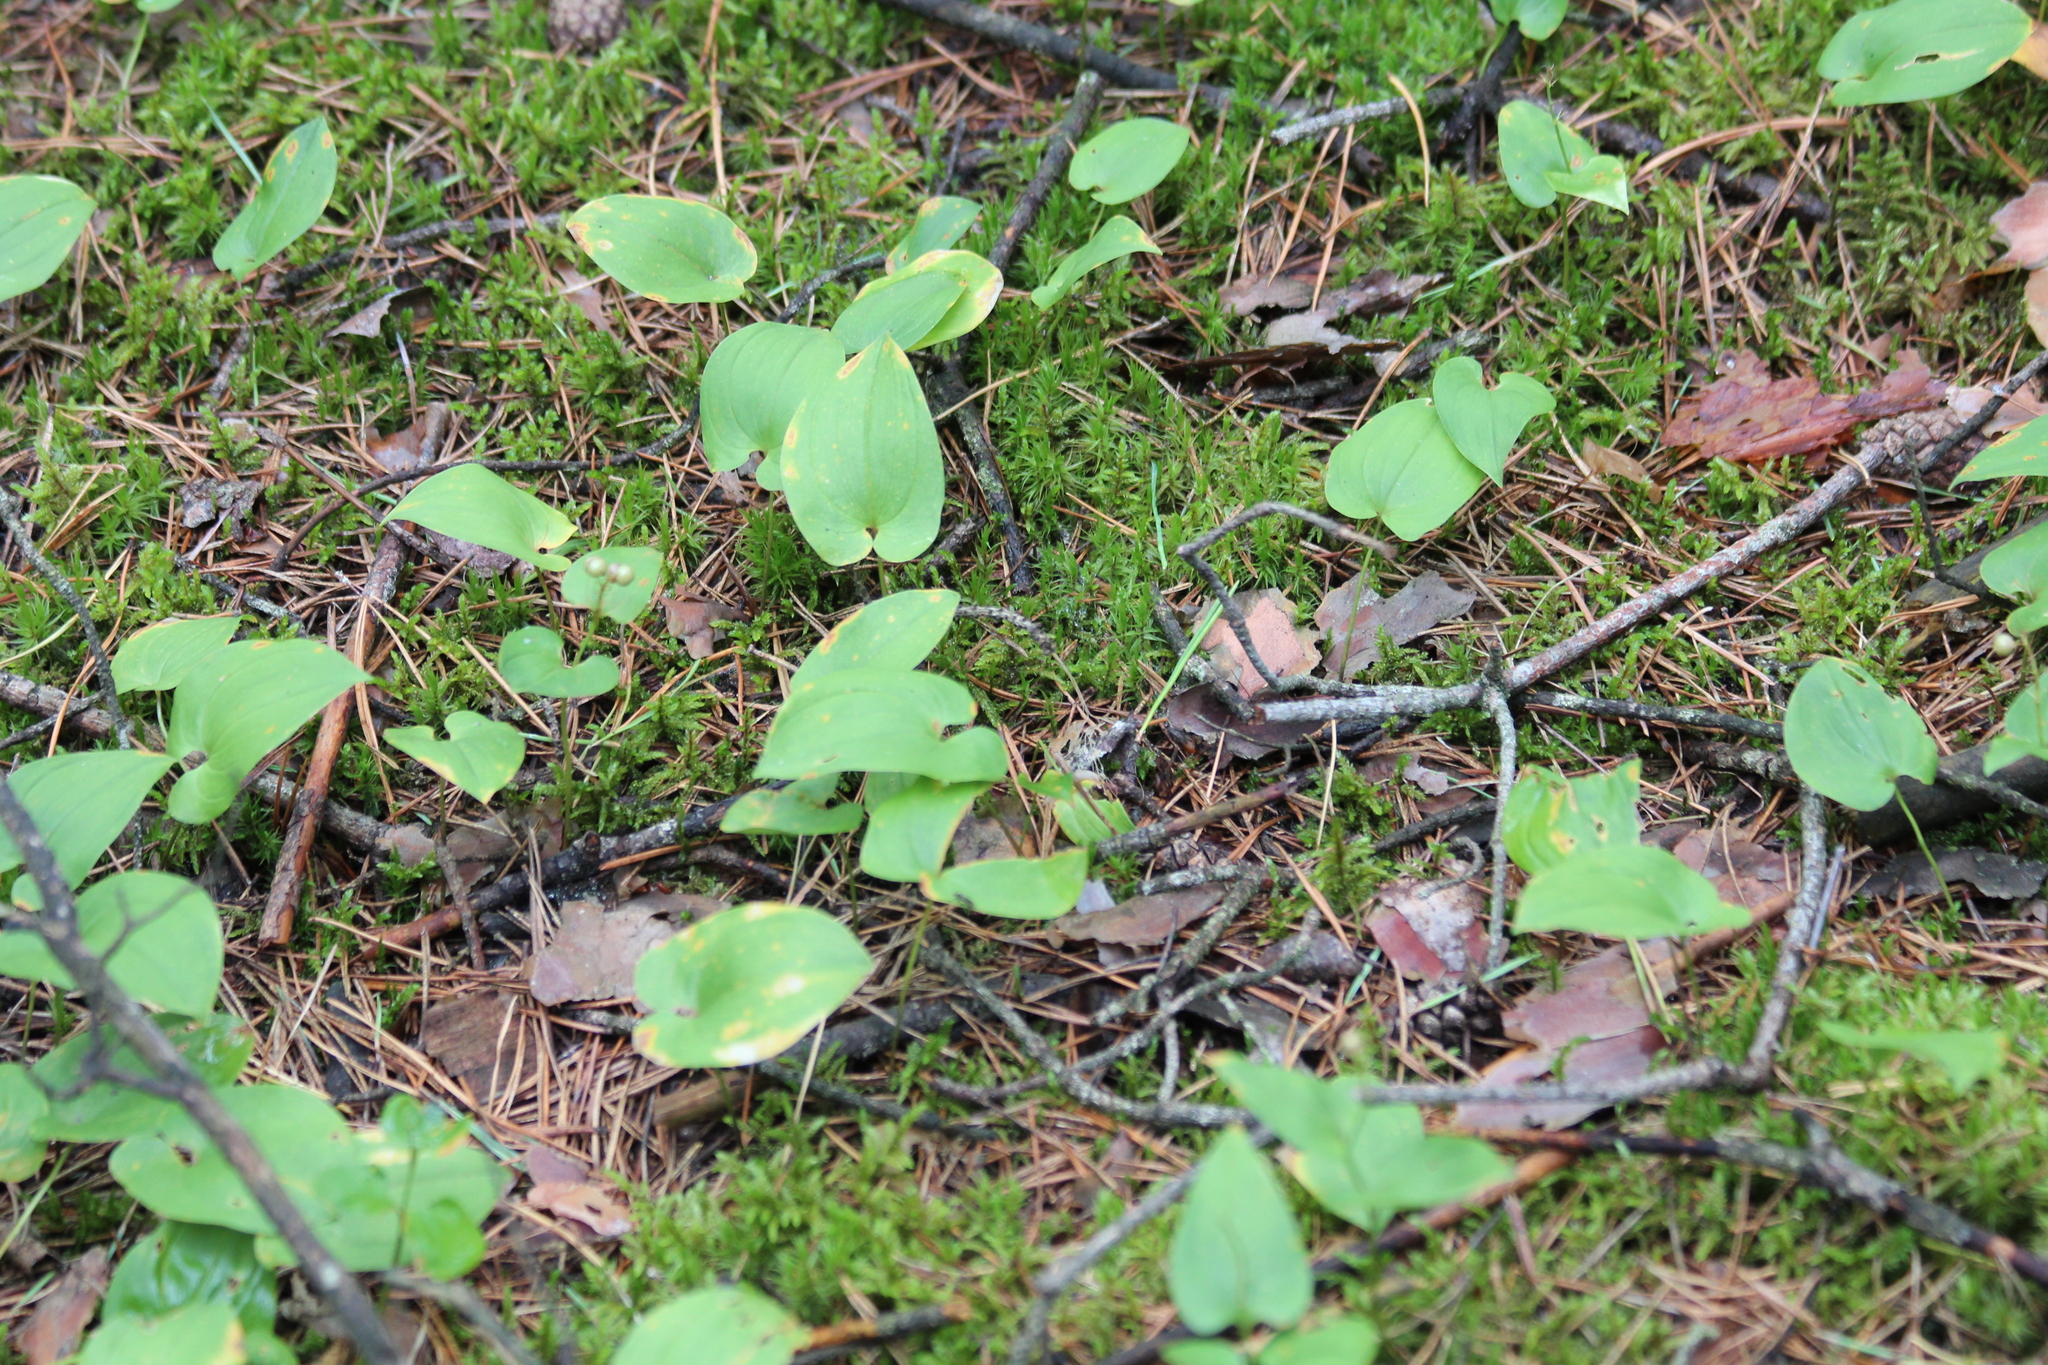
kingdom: Plantae
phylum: Tracheophyta
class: Liliopsida
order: Asparagales
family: Asparagaceae
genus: Maianthemum
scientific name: Maianthemum bifolium
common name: May lily
